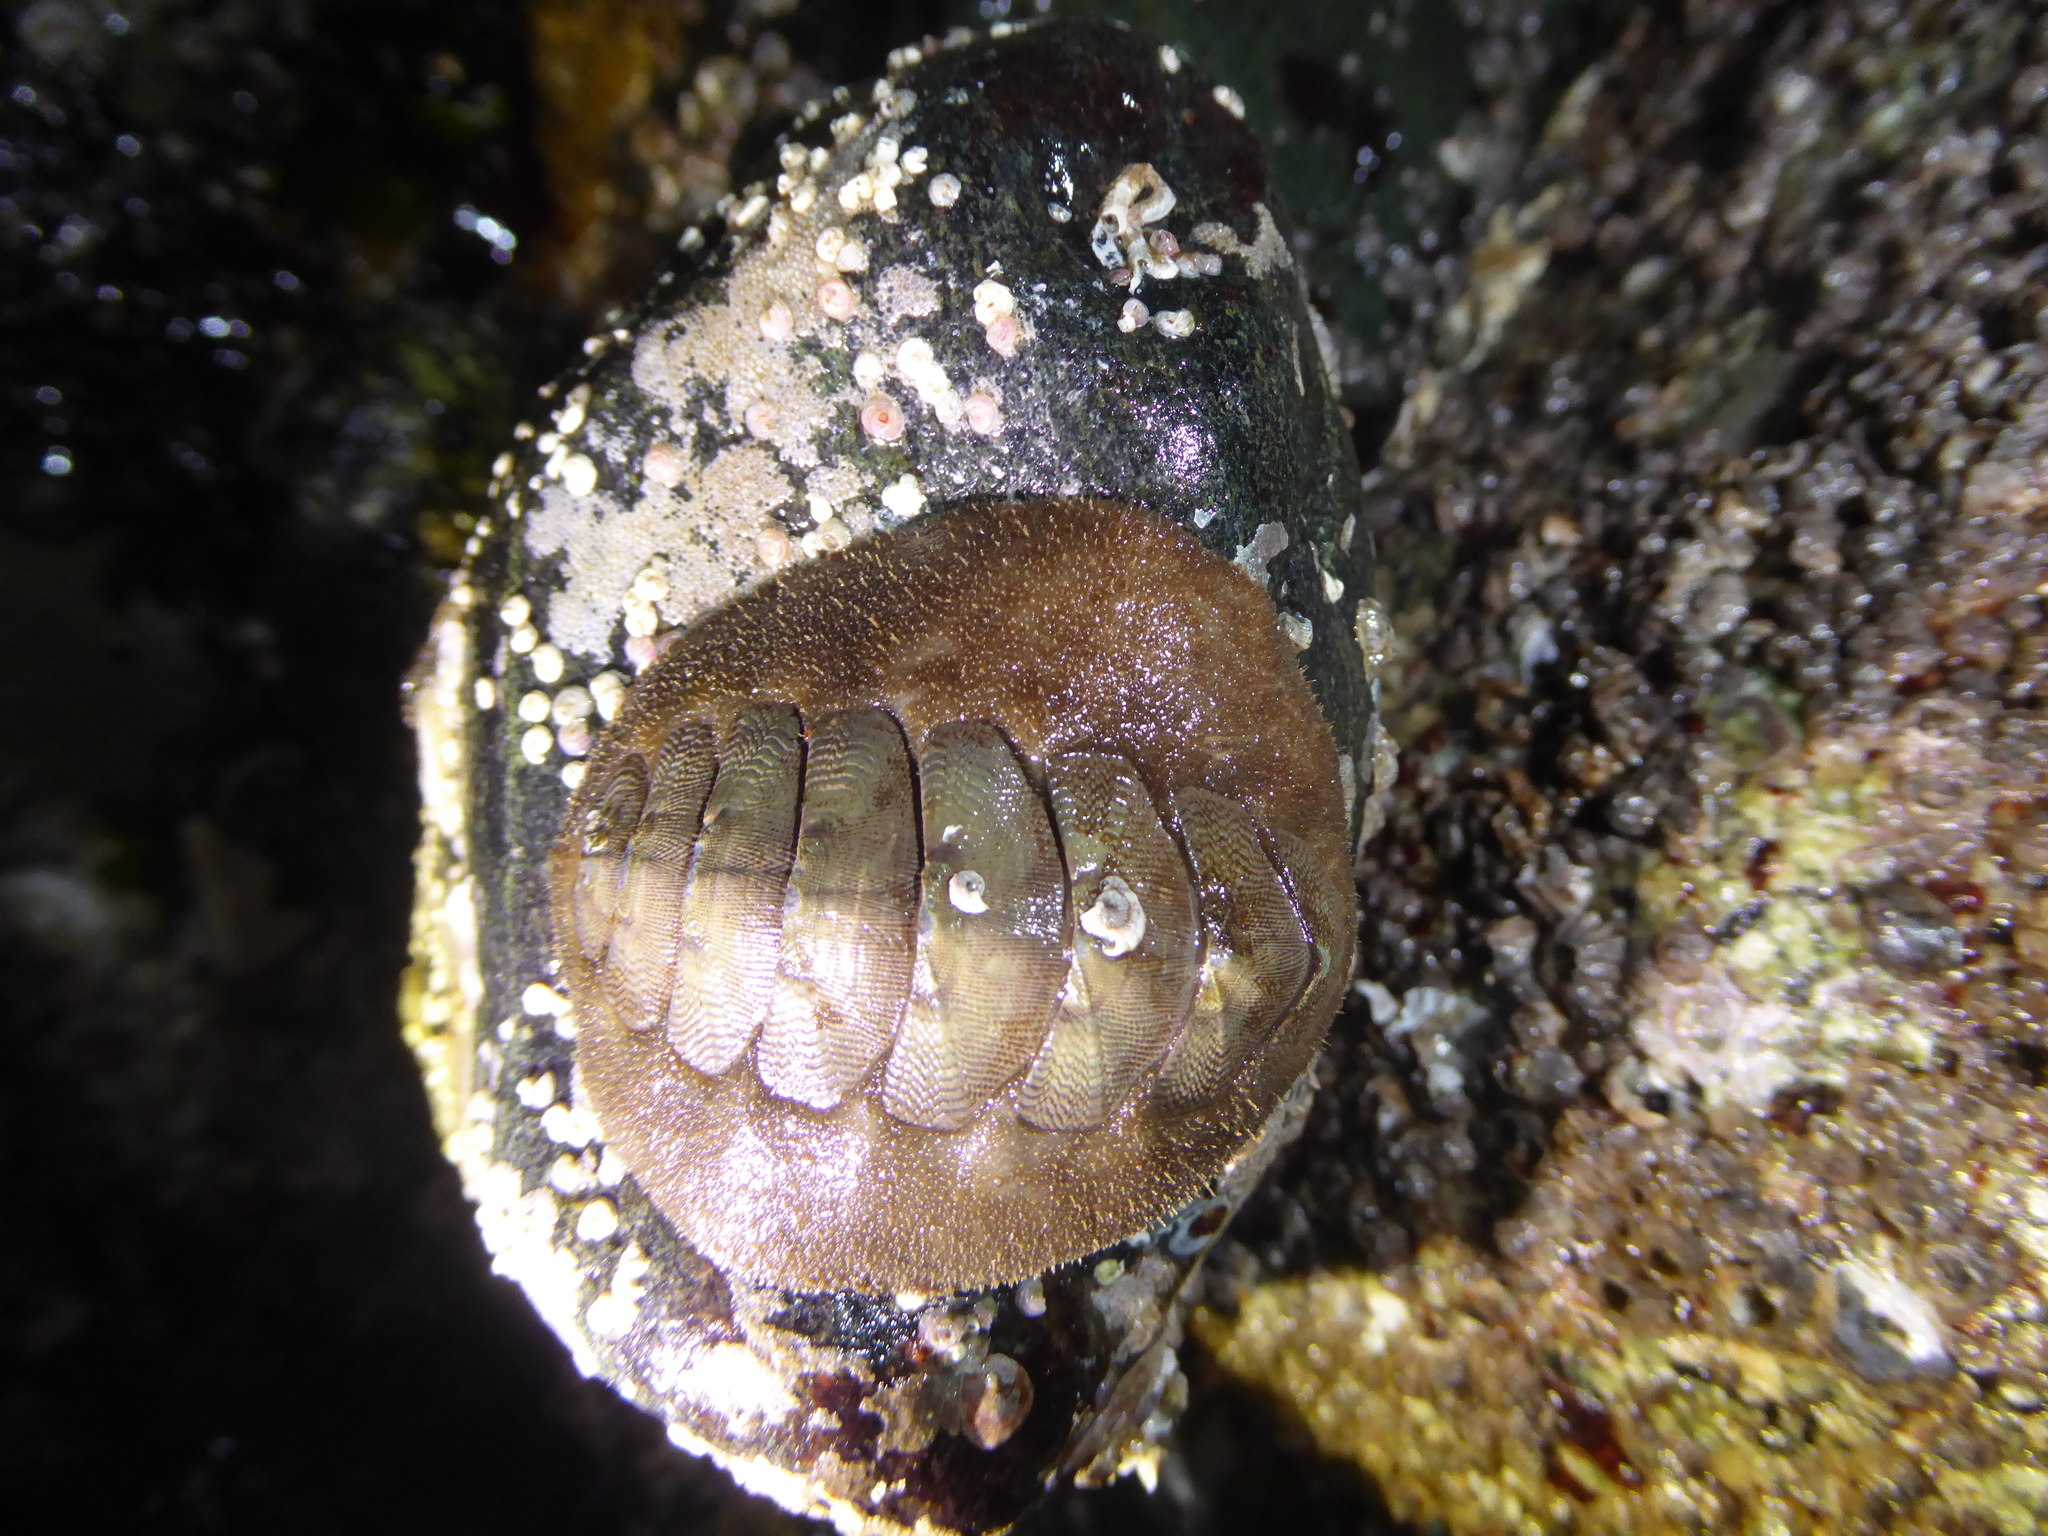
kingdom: Animalia
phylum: Mollusca
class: Polyplacophora
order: Chitonida
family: Mopaliidae
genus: Mopalia
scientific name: Mopalia ciliata
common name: Hairy chiton
